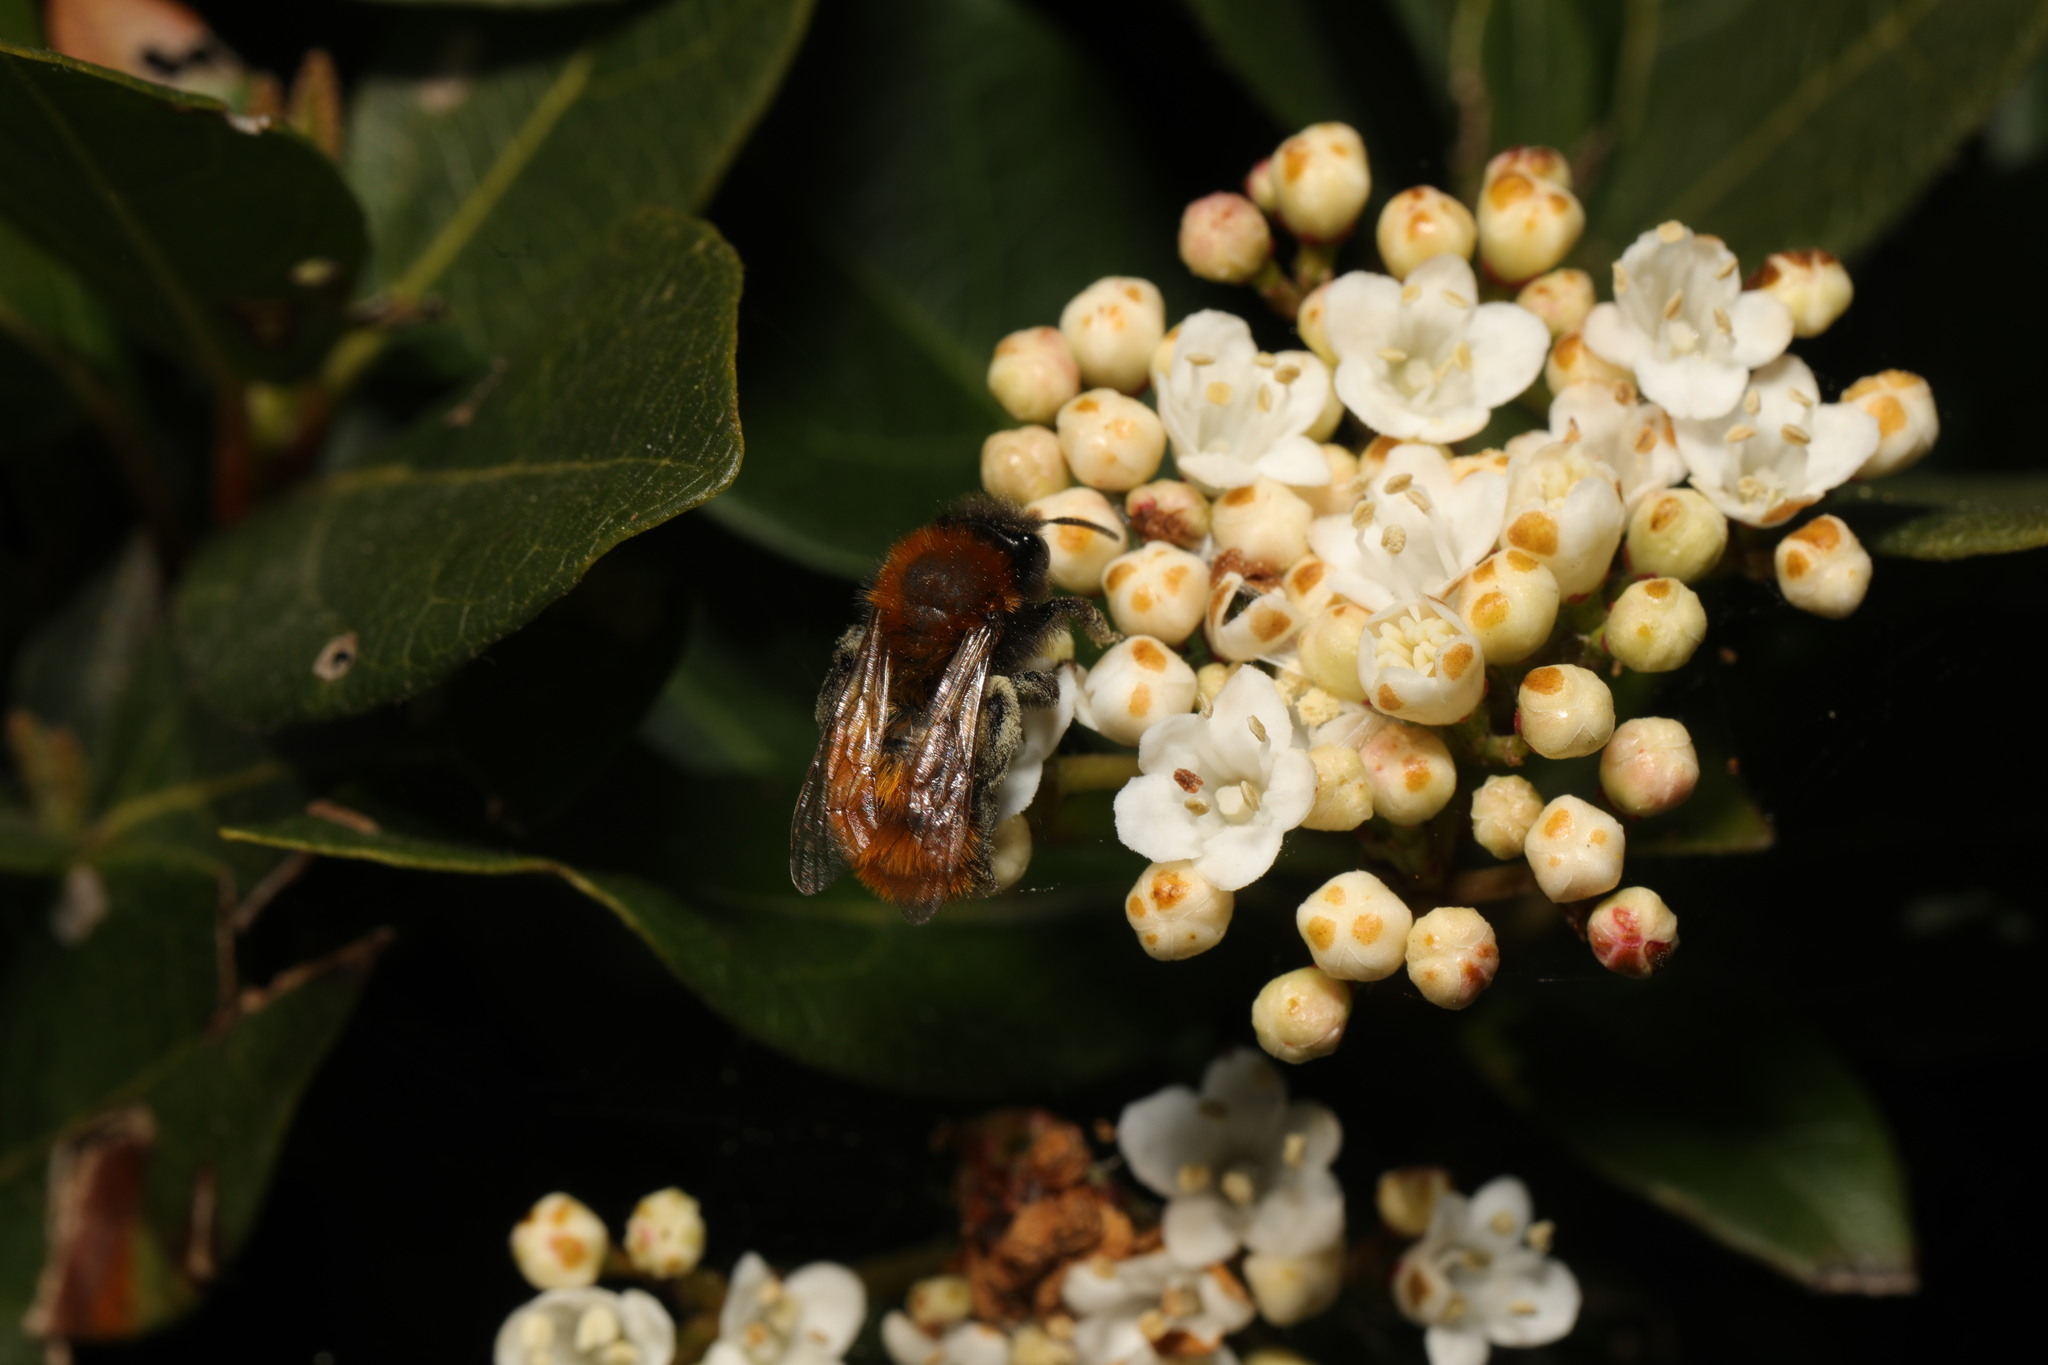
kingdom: Animalia
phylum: Arthropoda
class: Insecta
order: Hymenoptera
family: Andrenidae
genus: Andrena
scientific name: Andrena fulva
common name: Tawny mining bee
